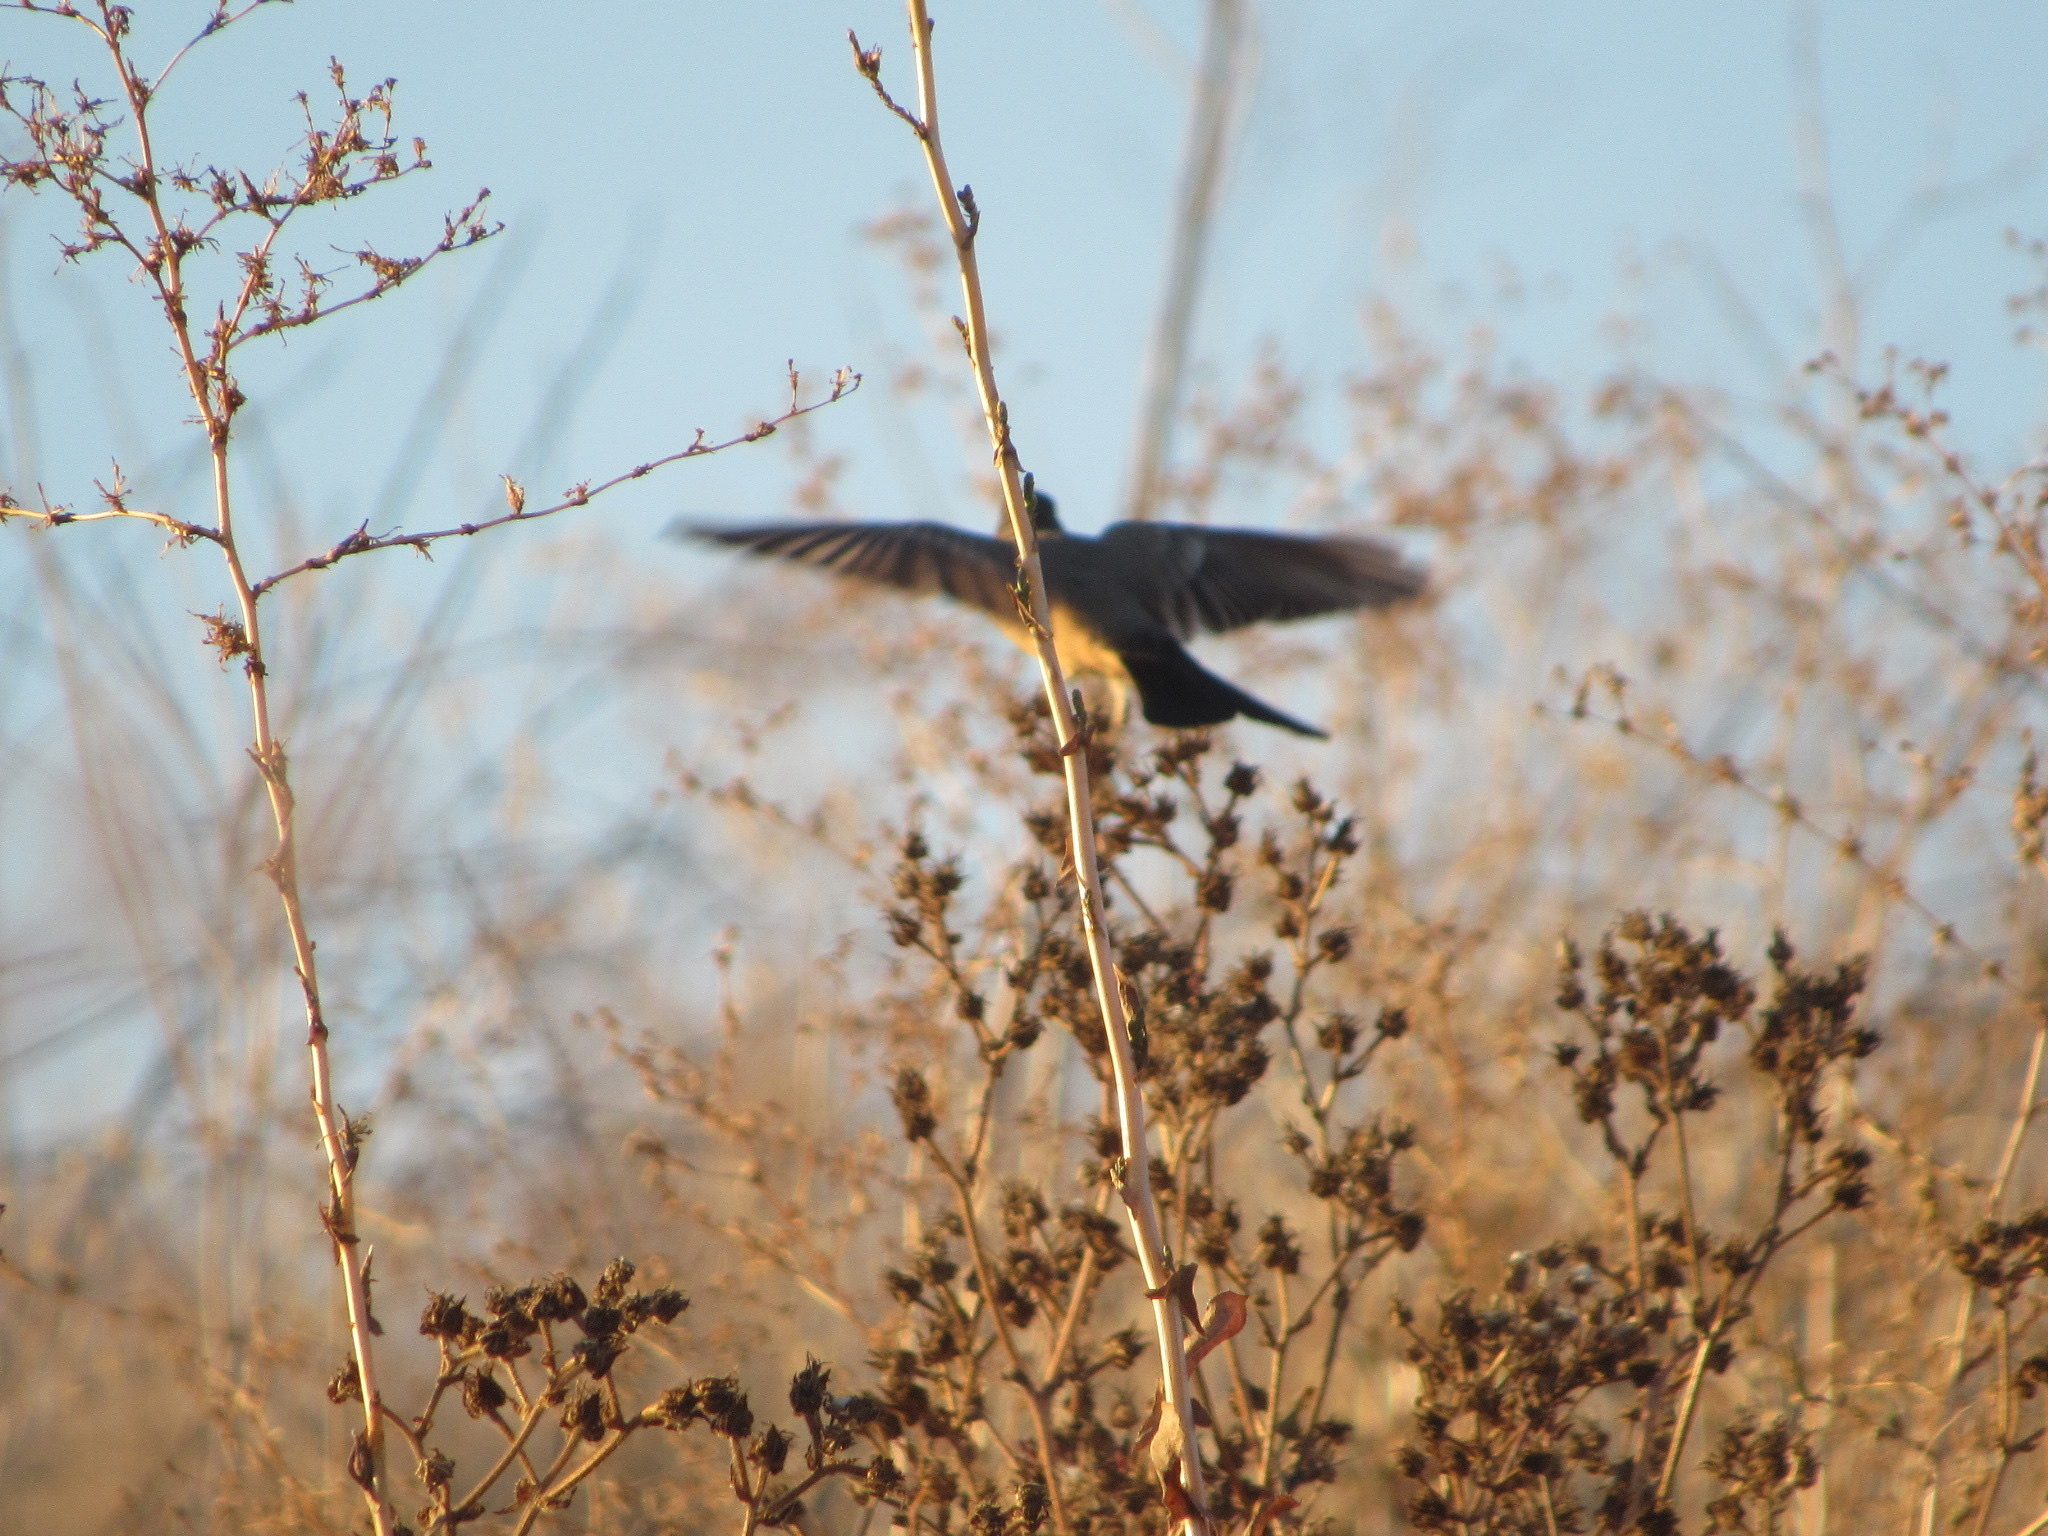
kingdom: Animalia
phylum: Chordata
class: Aves
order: Passeriformes
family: Tyrannidae
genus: Sayornis
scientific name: Sayornis saya
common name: Say's phoebe
